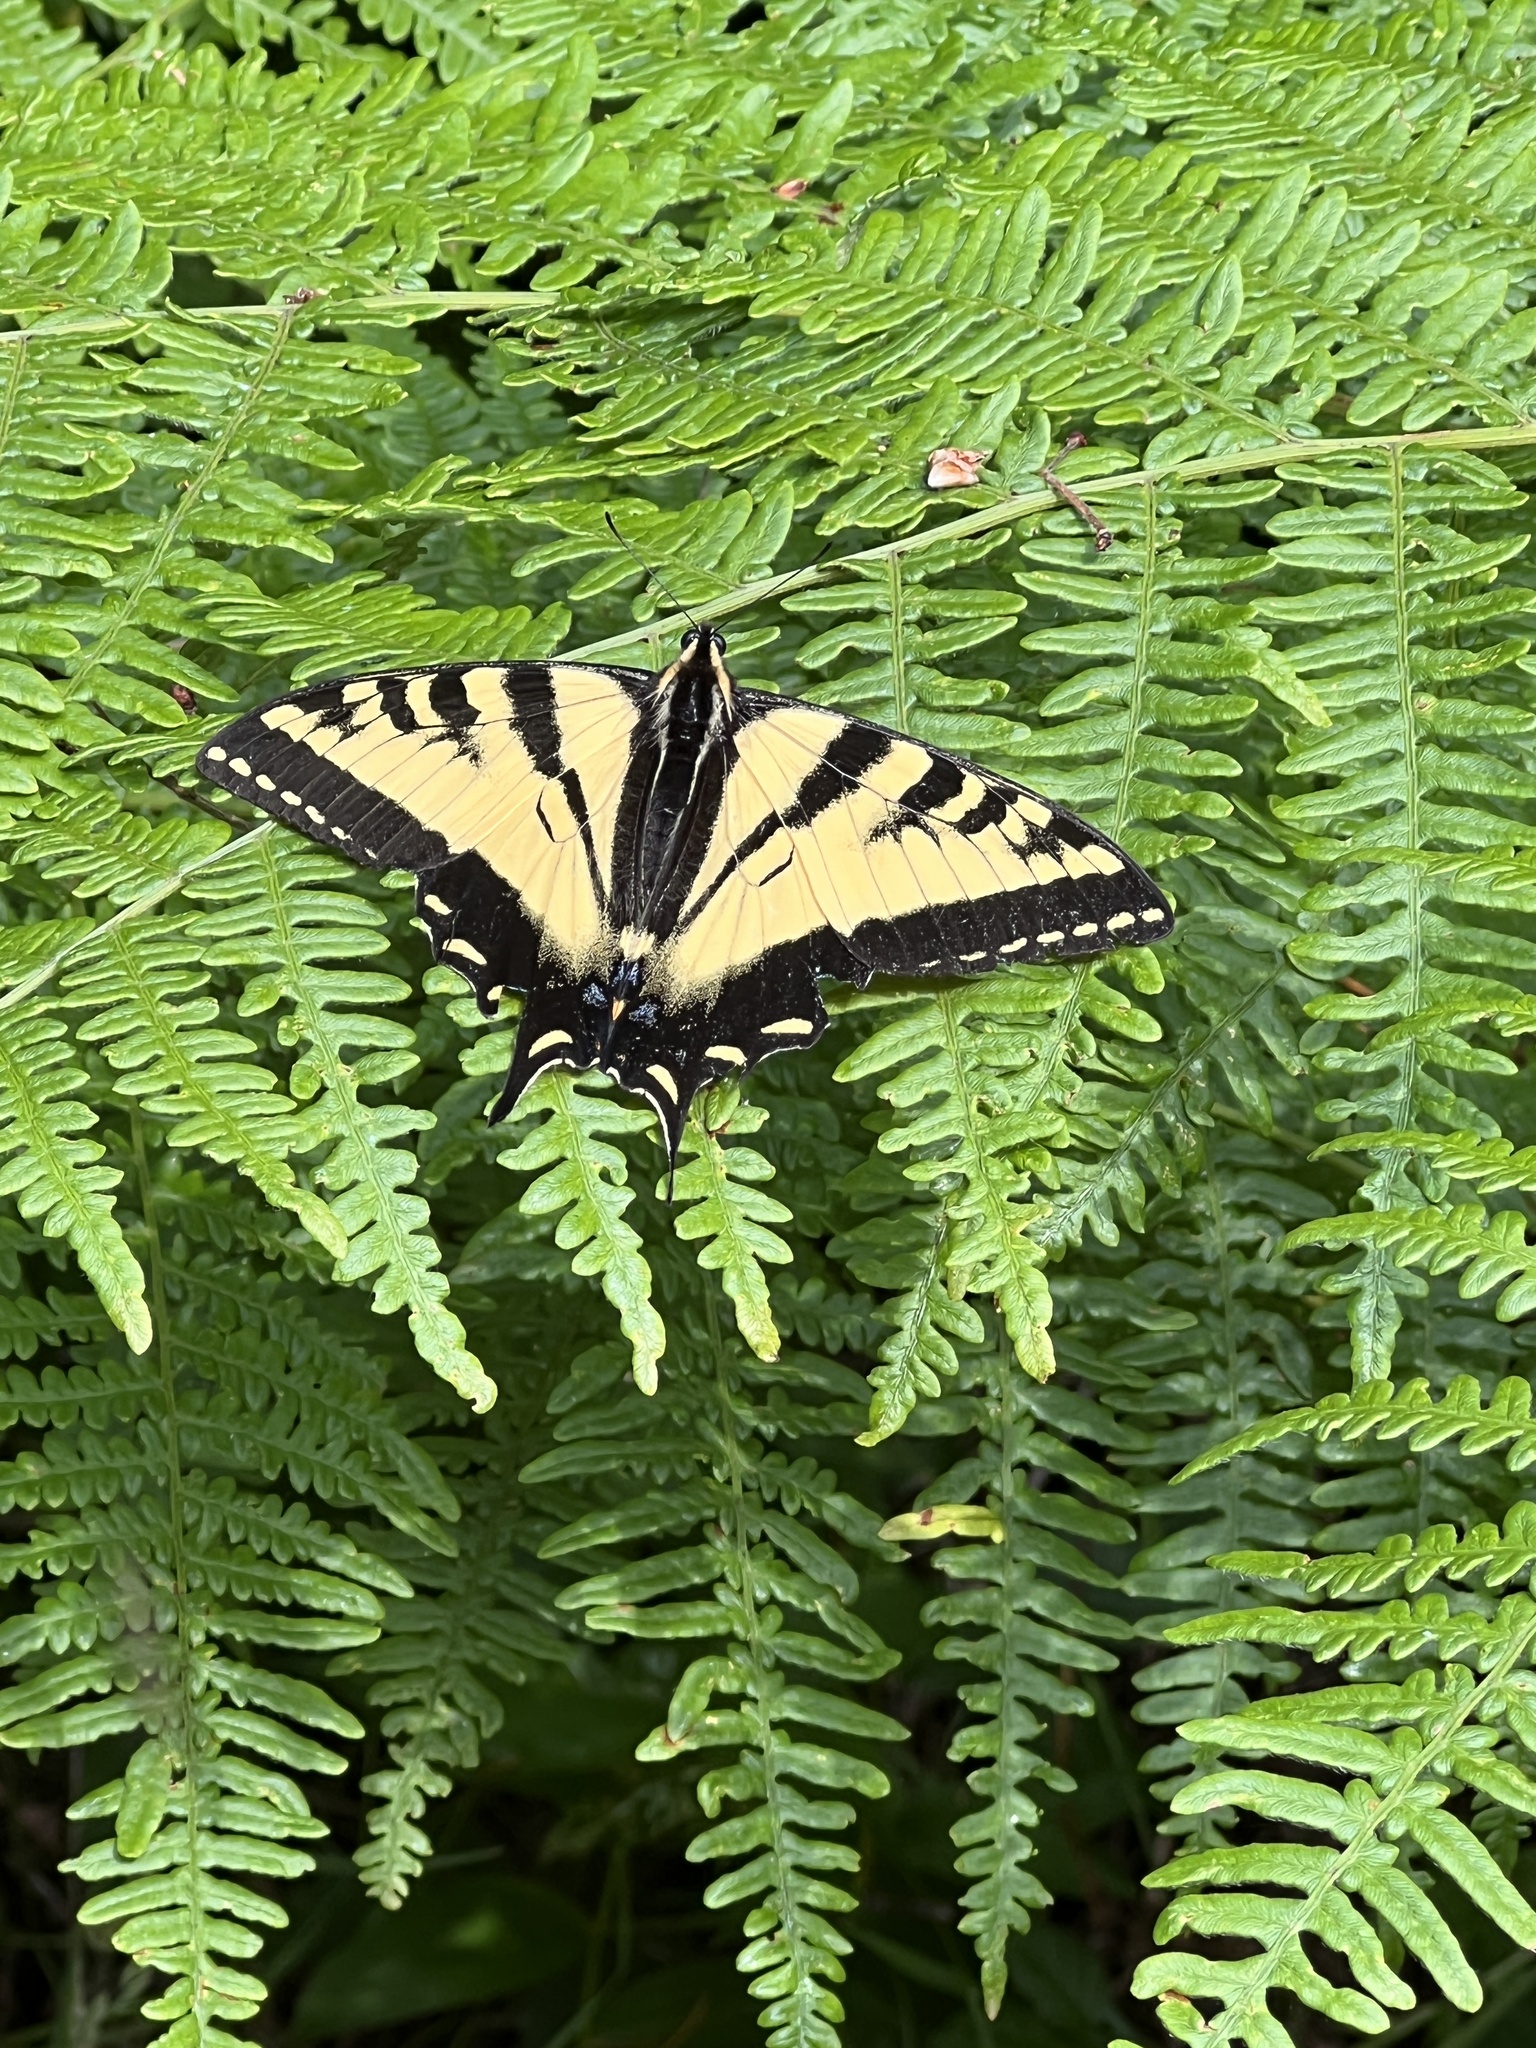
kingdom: Animalia
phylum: Arthropoda
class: Insecta
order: Lepidoptera
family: Papilionidae
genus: Papilio
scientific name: Papilio rutulus
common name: Western tiger swallowtail
